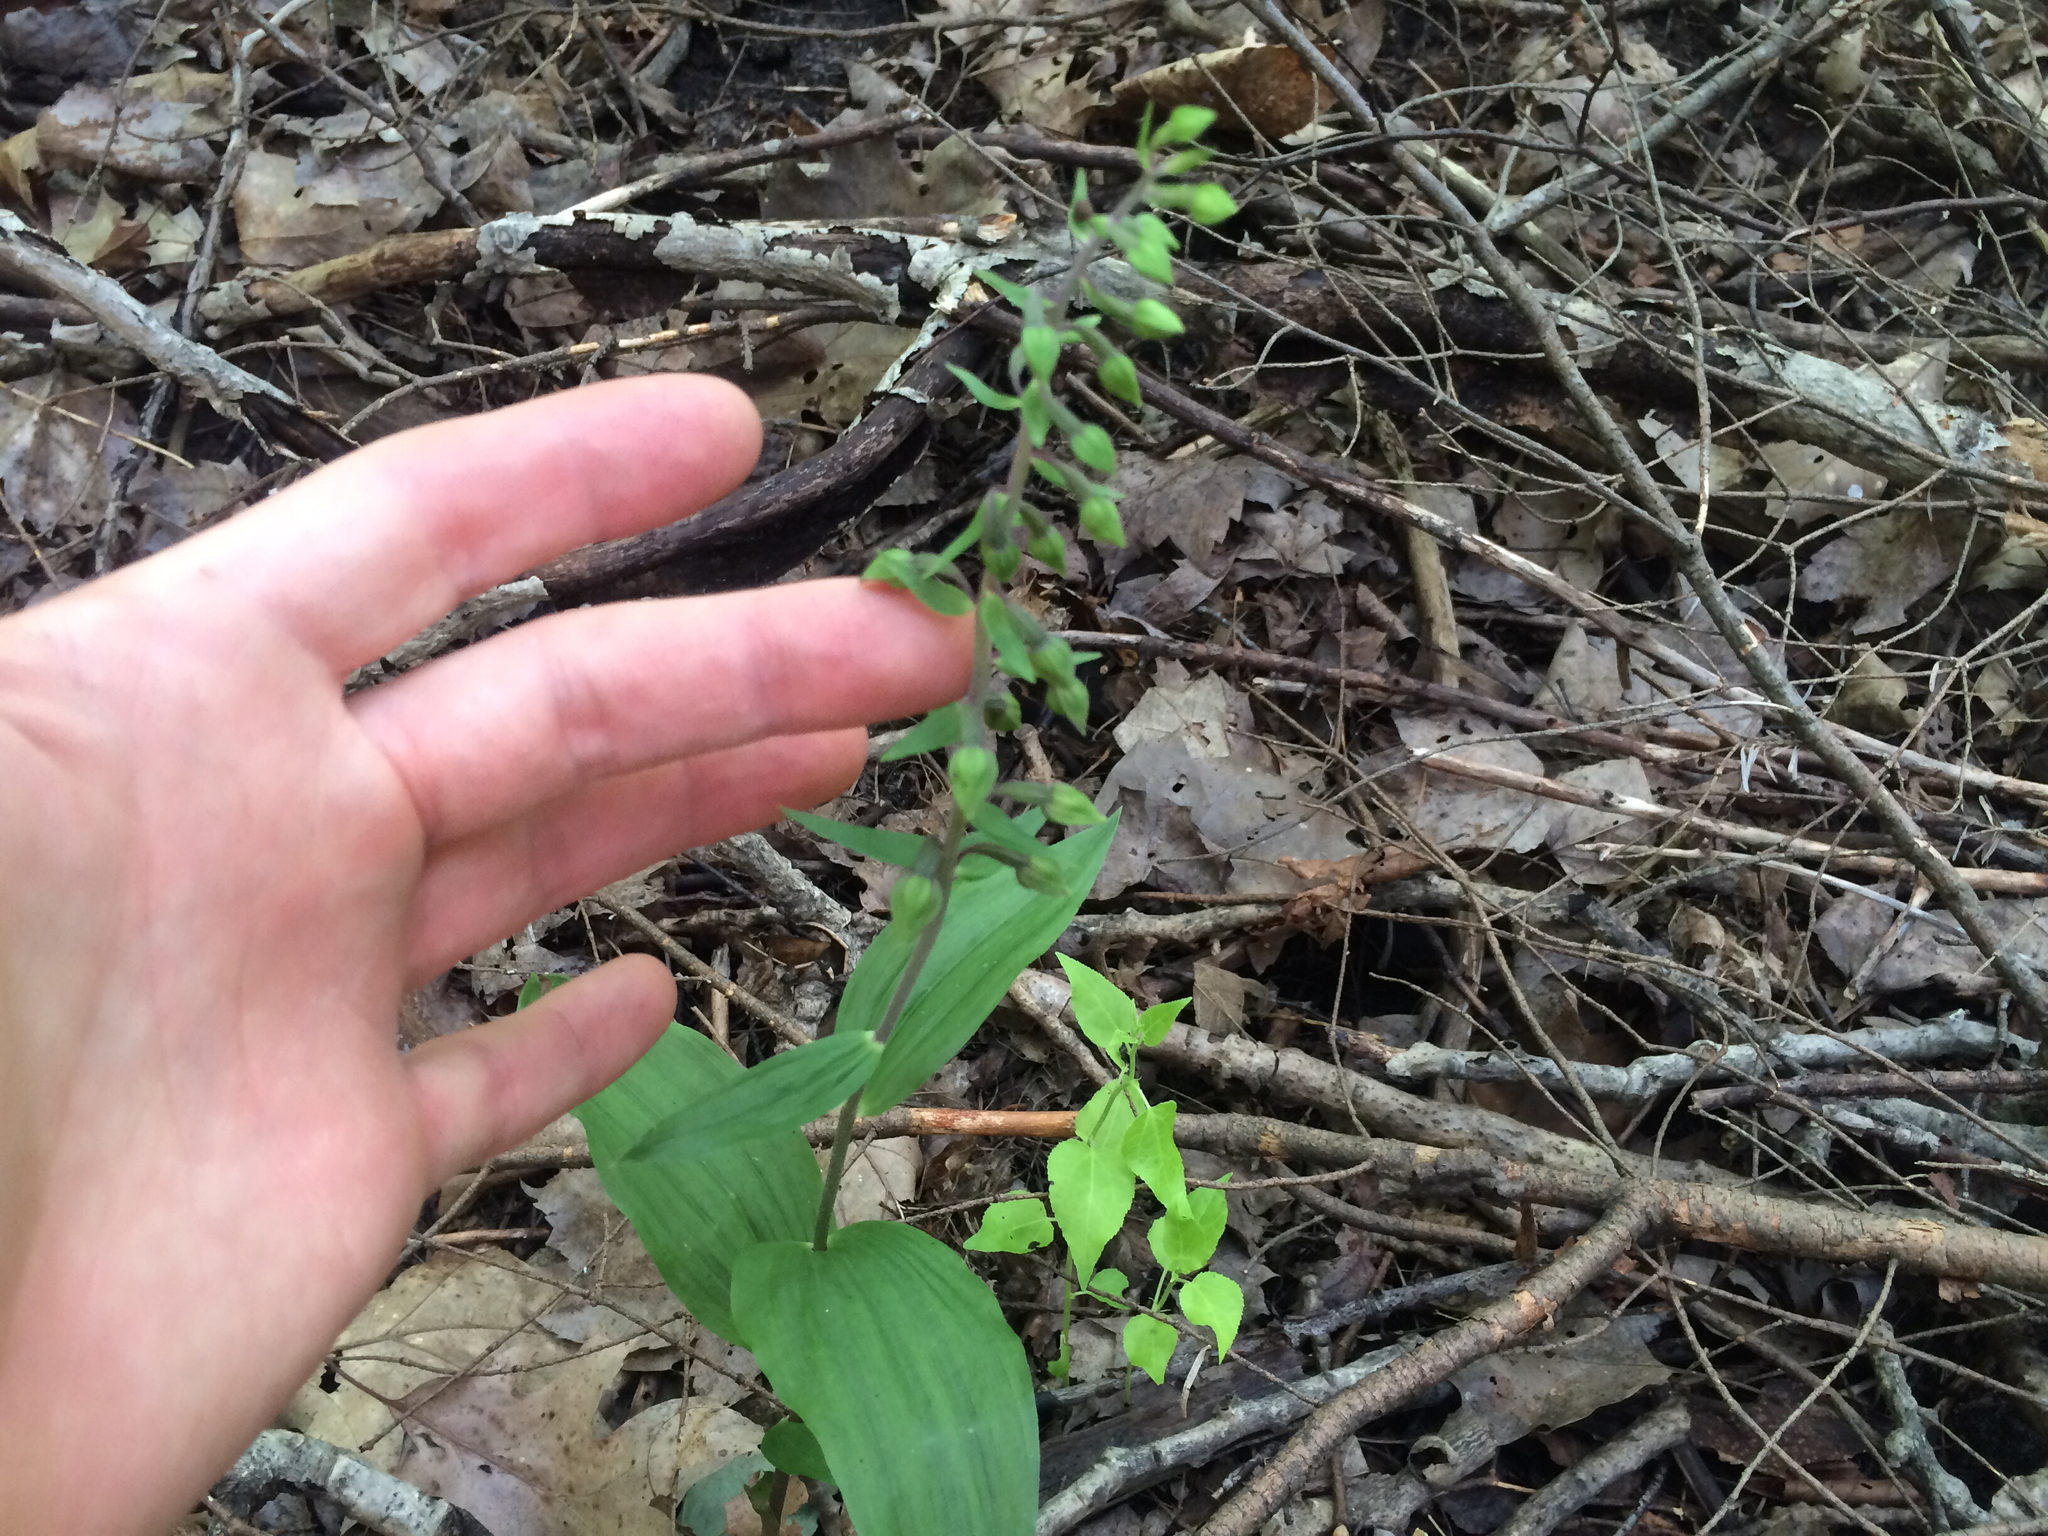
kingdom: Plantae
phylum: Tracheophyta
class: Liliopsida
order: Asparagales
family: Orchidaceae
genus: Epipactis
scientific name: Epipactis helleborine
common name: Broad-leaved helleborine
